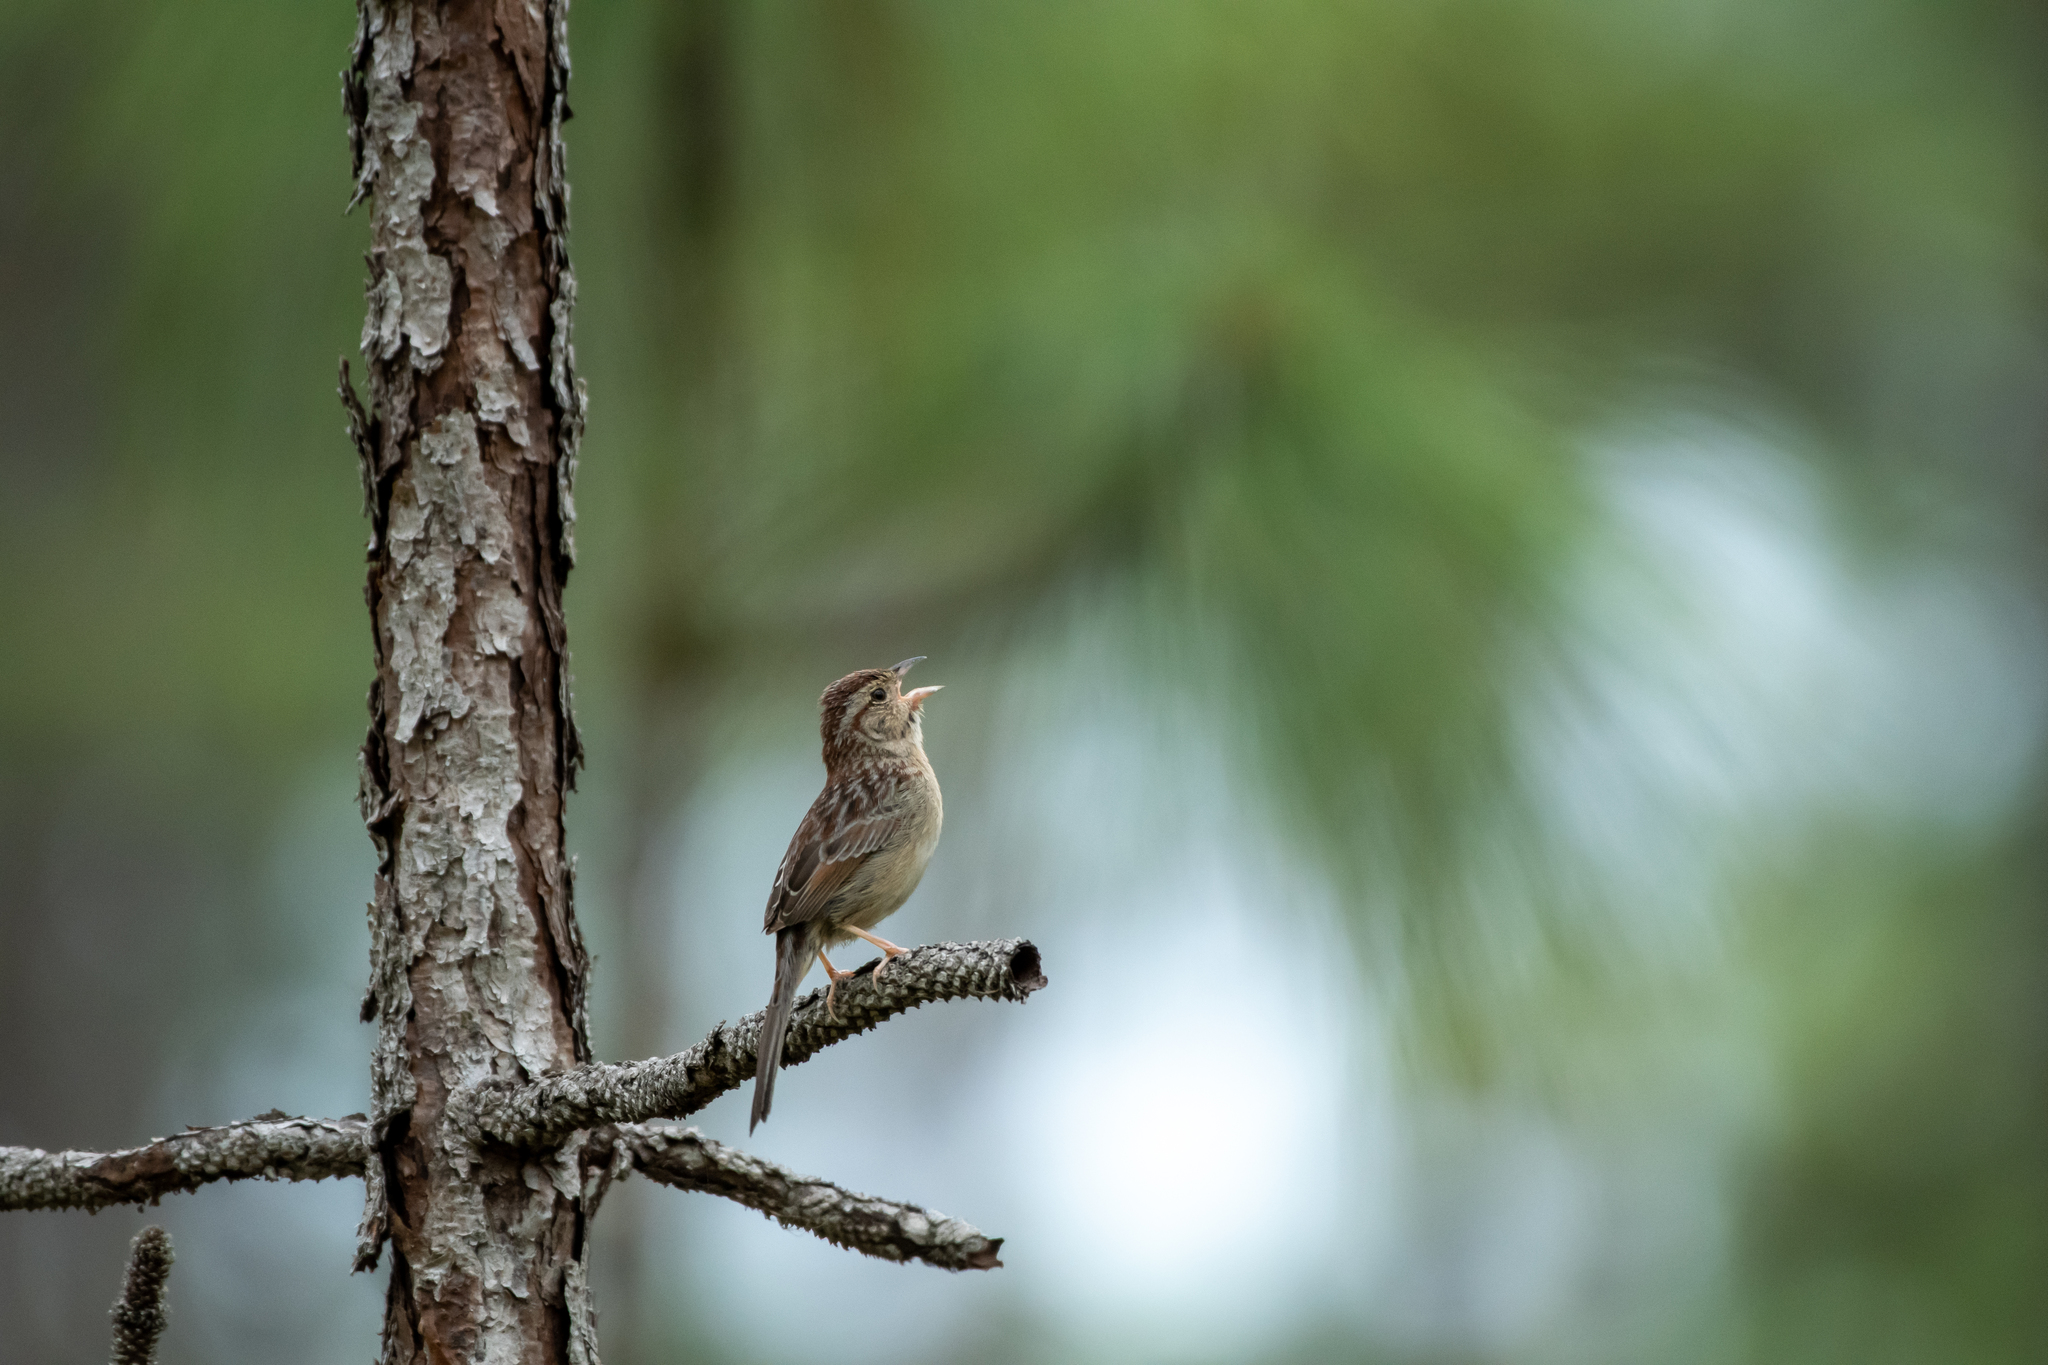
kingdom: Animalia
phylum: Chordata
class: Aves
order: Passeriformes
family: Passerellidae
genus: Peucaea
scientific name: Peucaea aestivalis
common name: Bachman's sparrow
